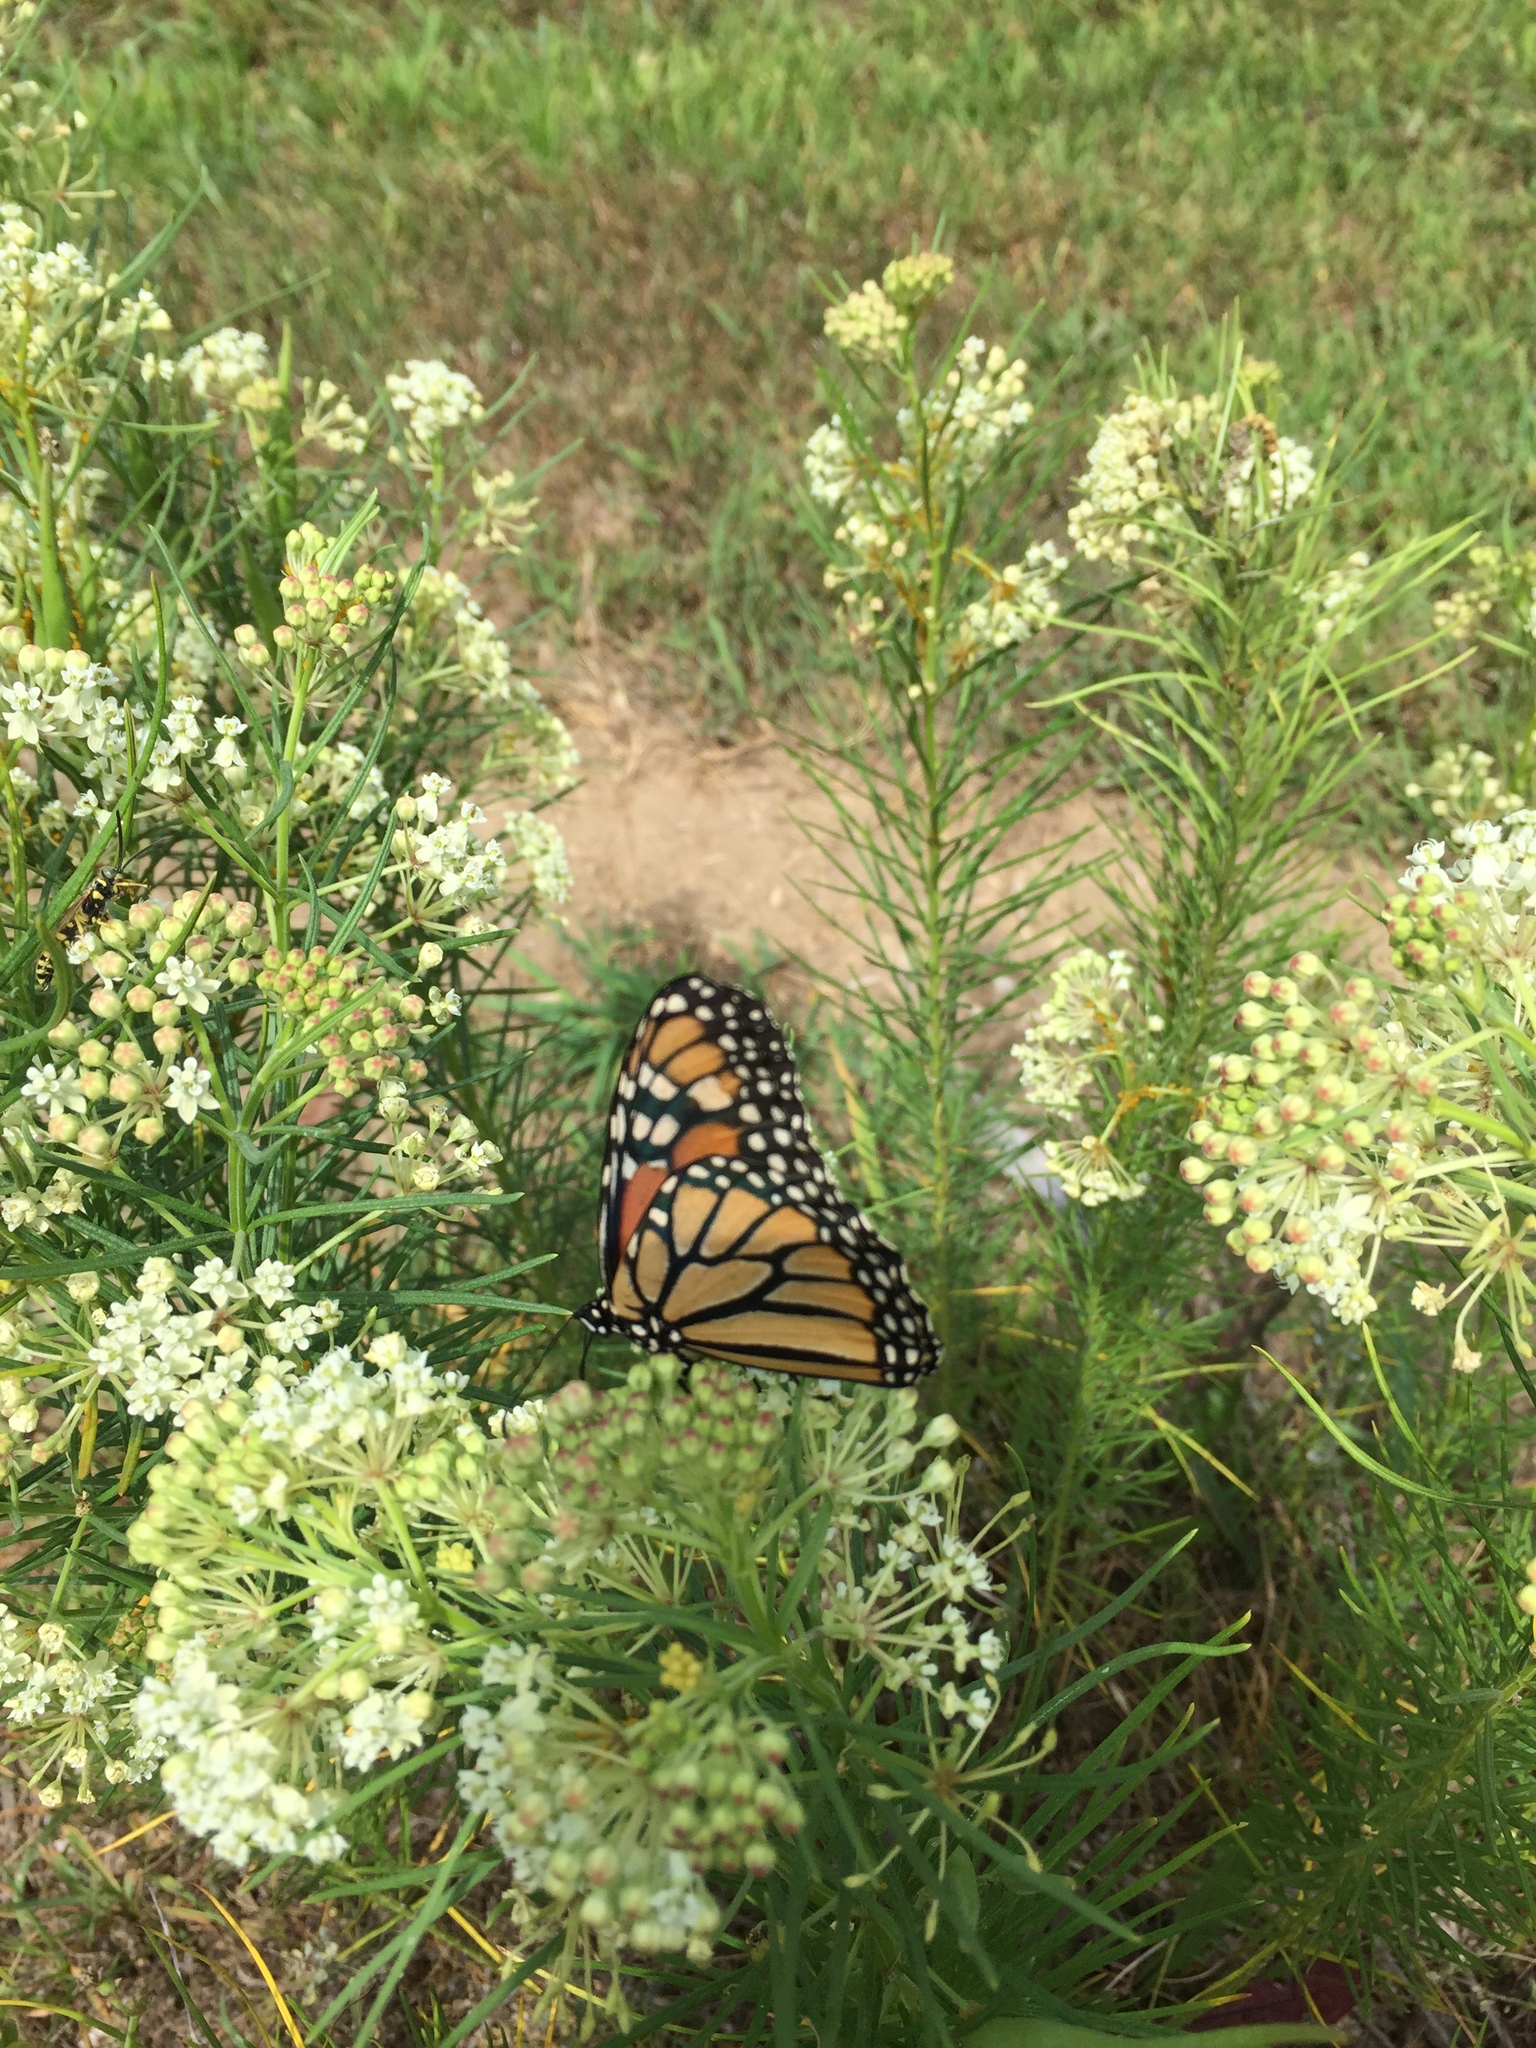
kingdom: Animalia
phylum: Arthropoda
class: Insecta
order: Lepidoptera
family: Nymphalidae
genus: Danaus
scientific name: Danaus plexippus
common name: Monarch
